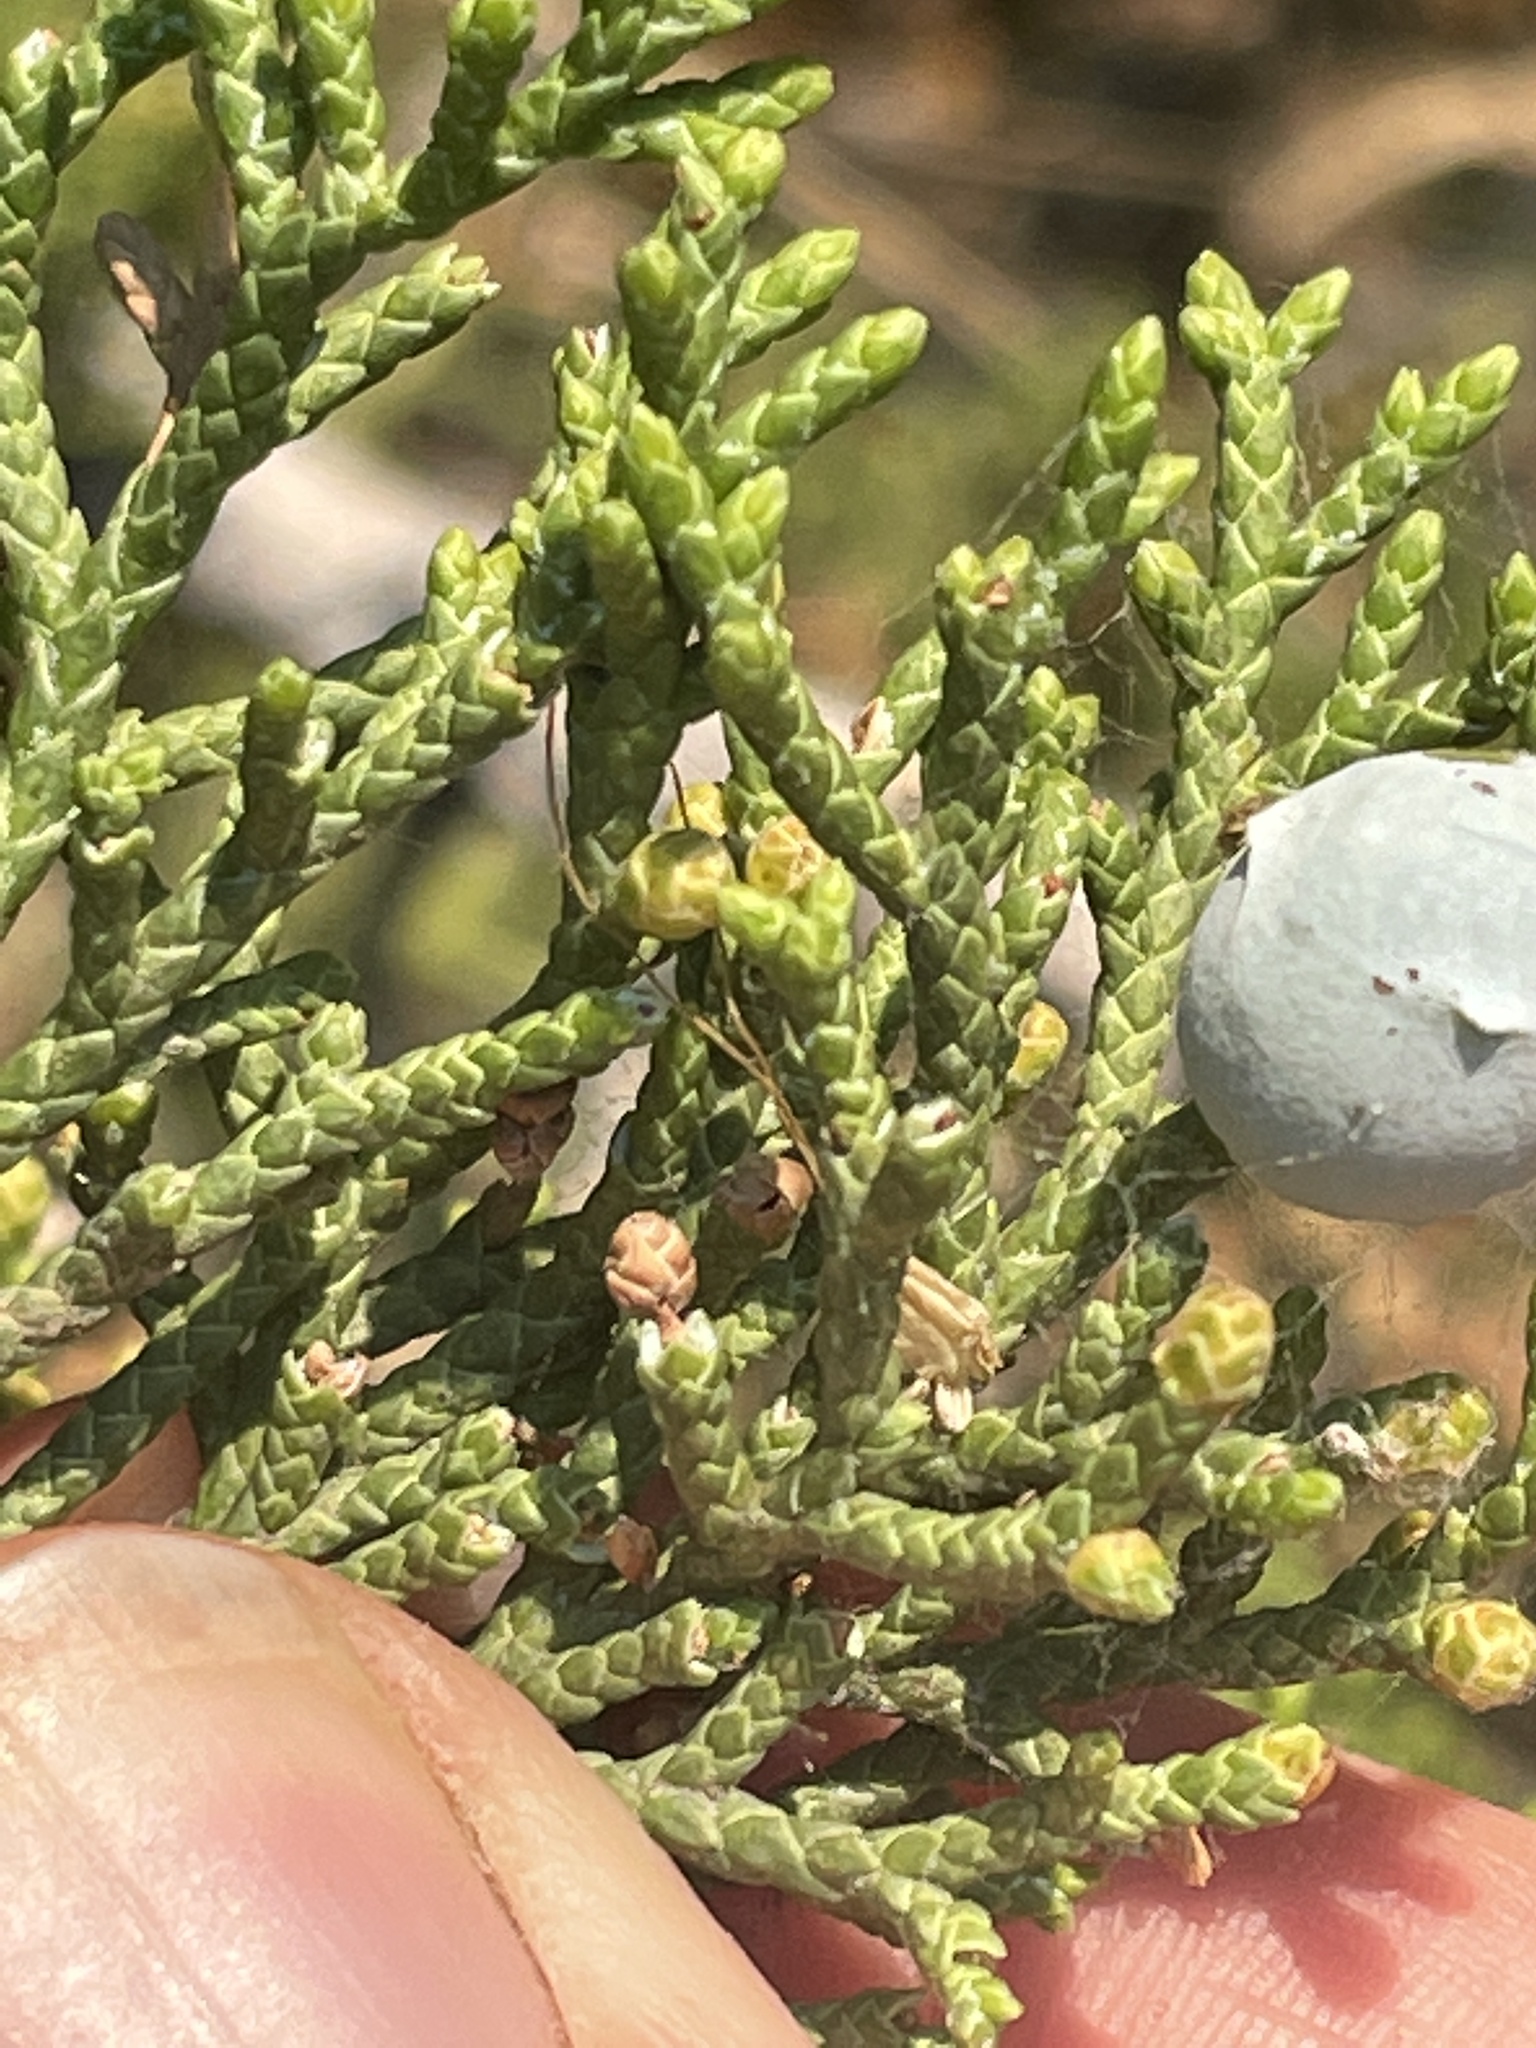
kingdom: Plantae
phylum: Tracheophyta
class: Pinopsida
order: Pinales
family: Cupressaceae
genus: Juniperus
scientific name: Juniperus osteosperma
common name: Utah juniper
